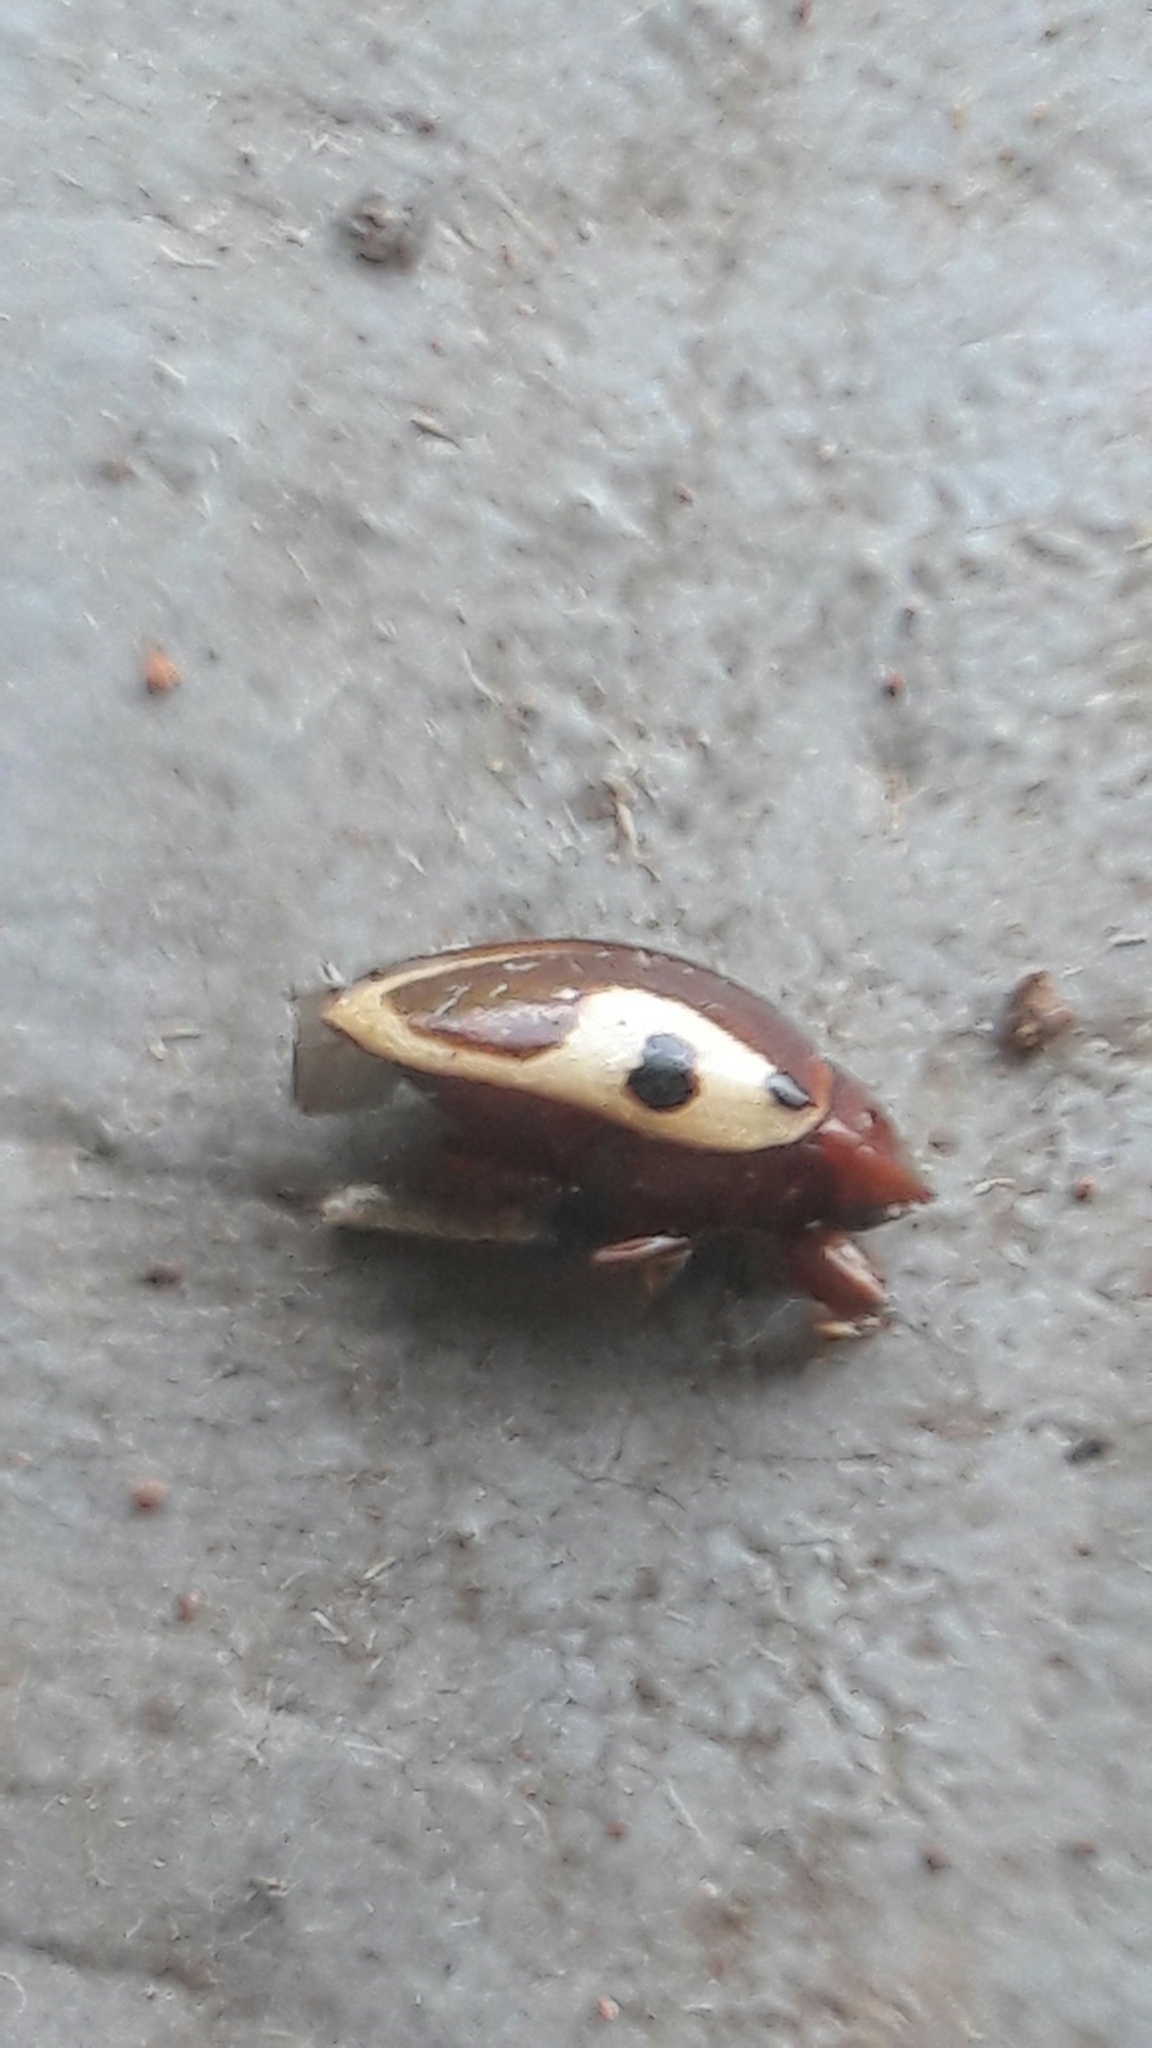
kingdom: Animalia
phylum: Arthropoda
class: Insecta
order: Coleoptera
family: Chelonariidae
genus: Chelonarium
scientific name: Chelonarium
